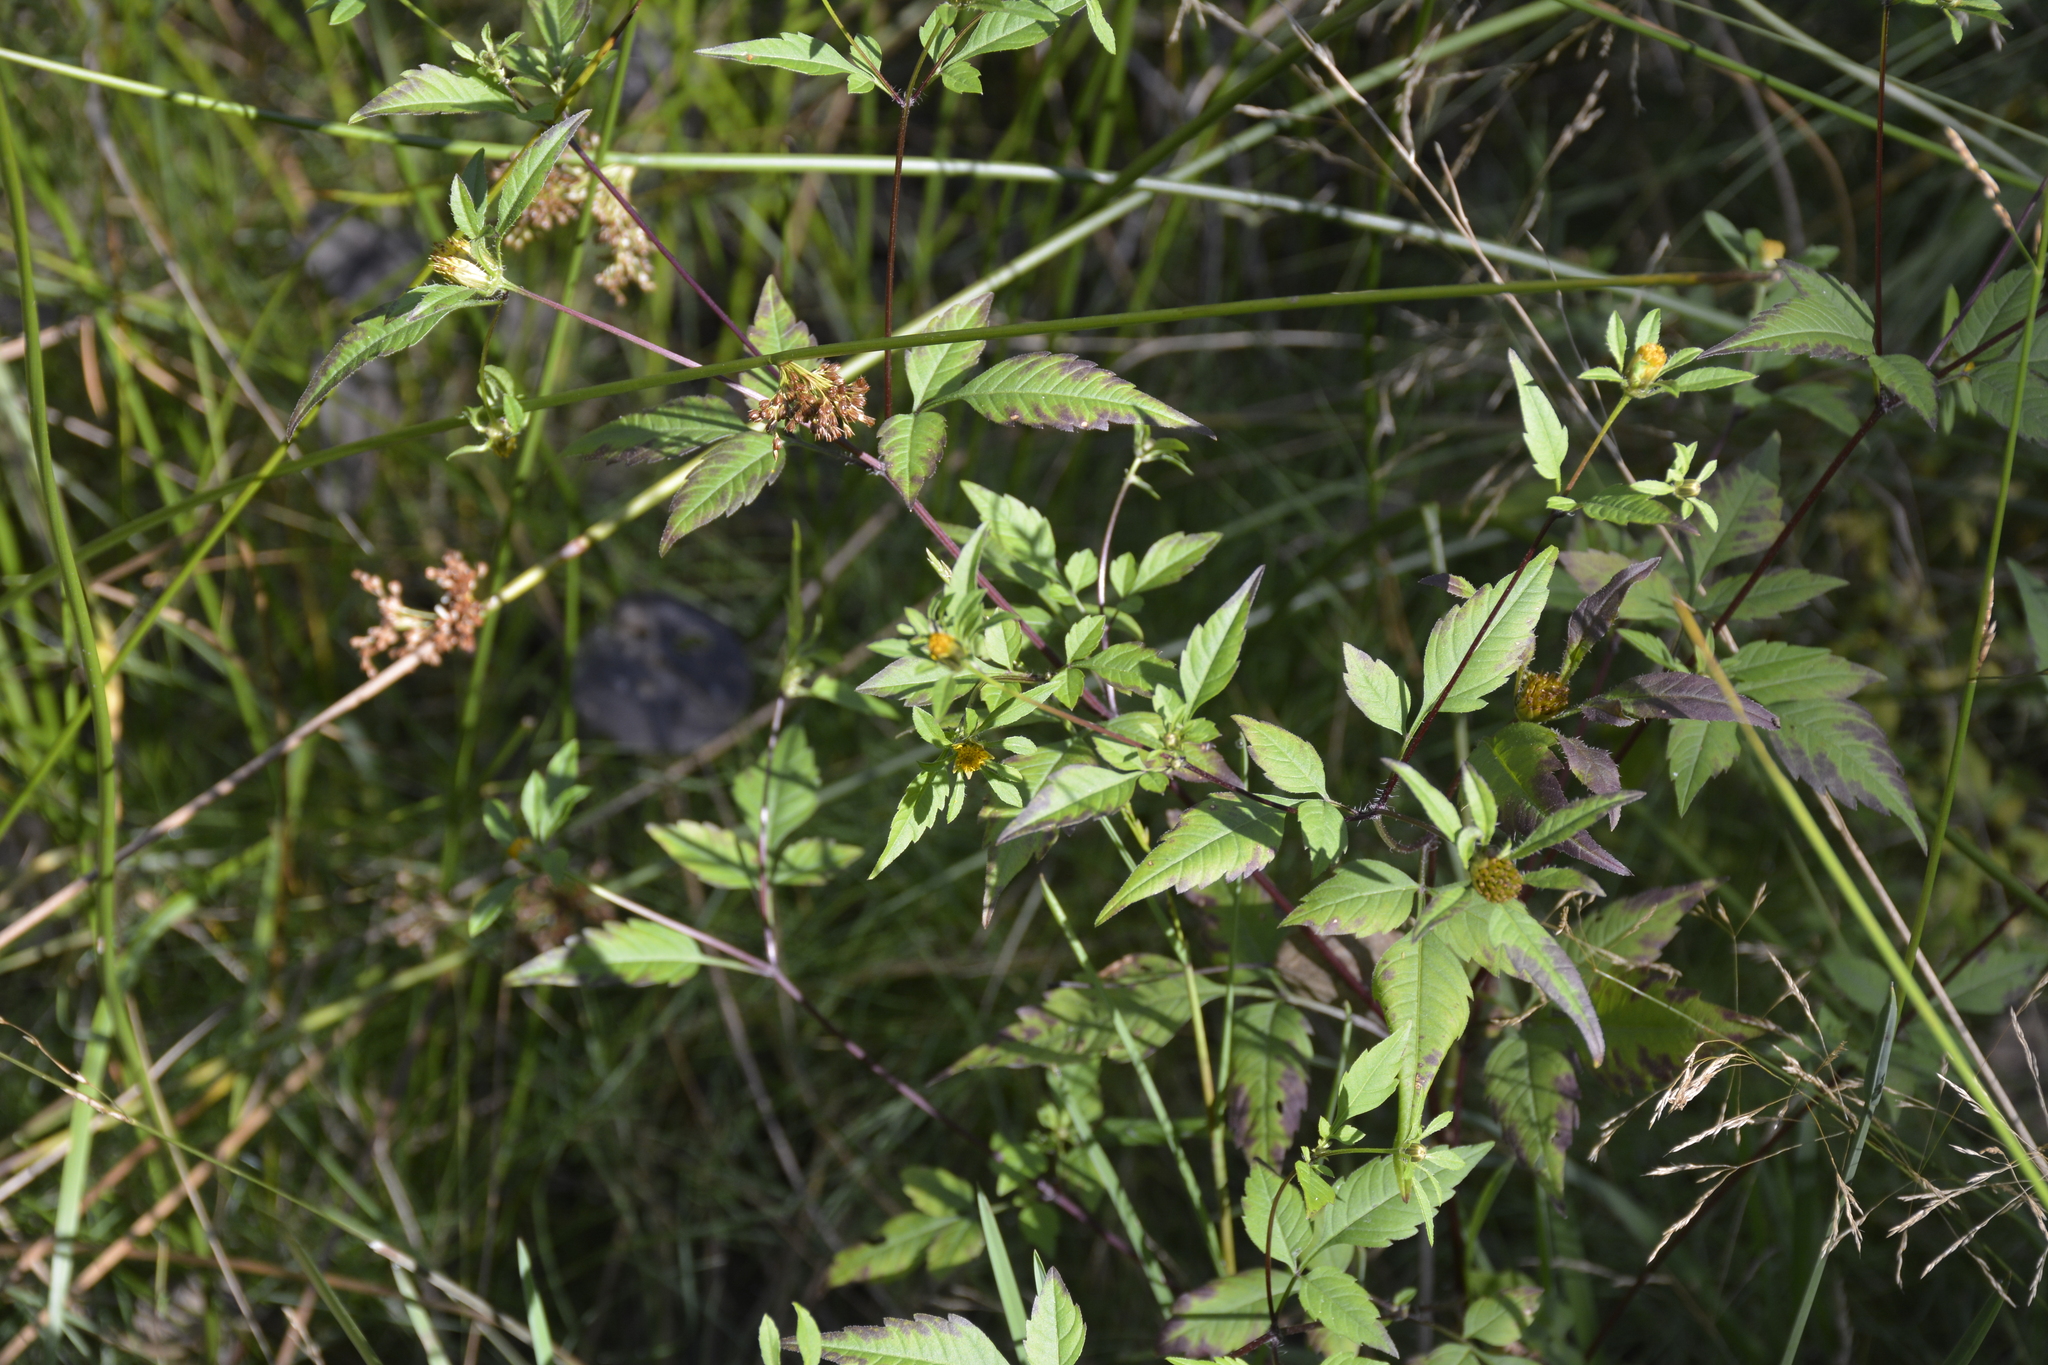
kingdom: Plantae
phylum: Tracheophyta
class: Magnoliopsida
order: Asterales
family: Asteraceae
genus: Bidens
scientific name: Bidens frondosa
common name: Beggarticks
